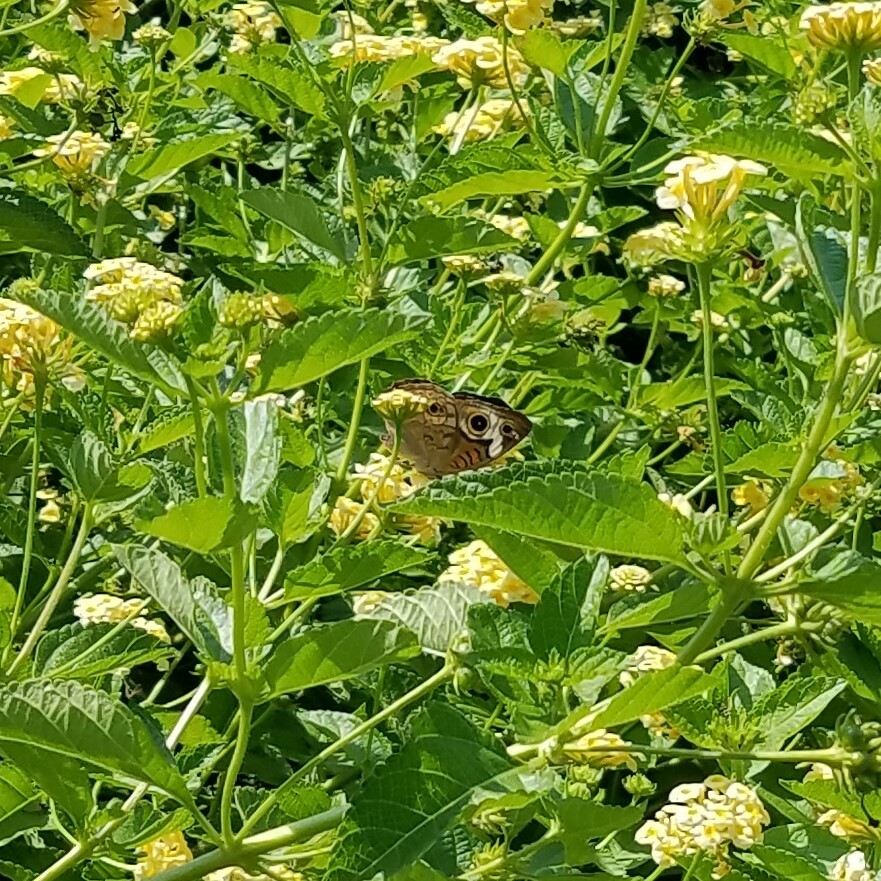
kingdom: Animalia
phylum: Arthropoda
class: Insecta
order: Lepidoptera
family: Nymphalidae
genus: Junonia
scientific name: Junonia coenia
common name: Common buckeye
